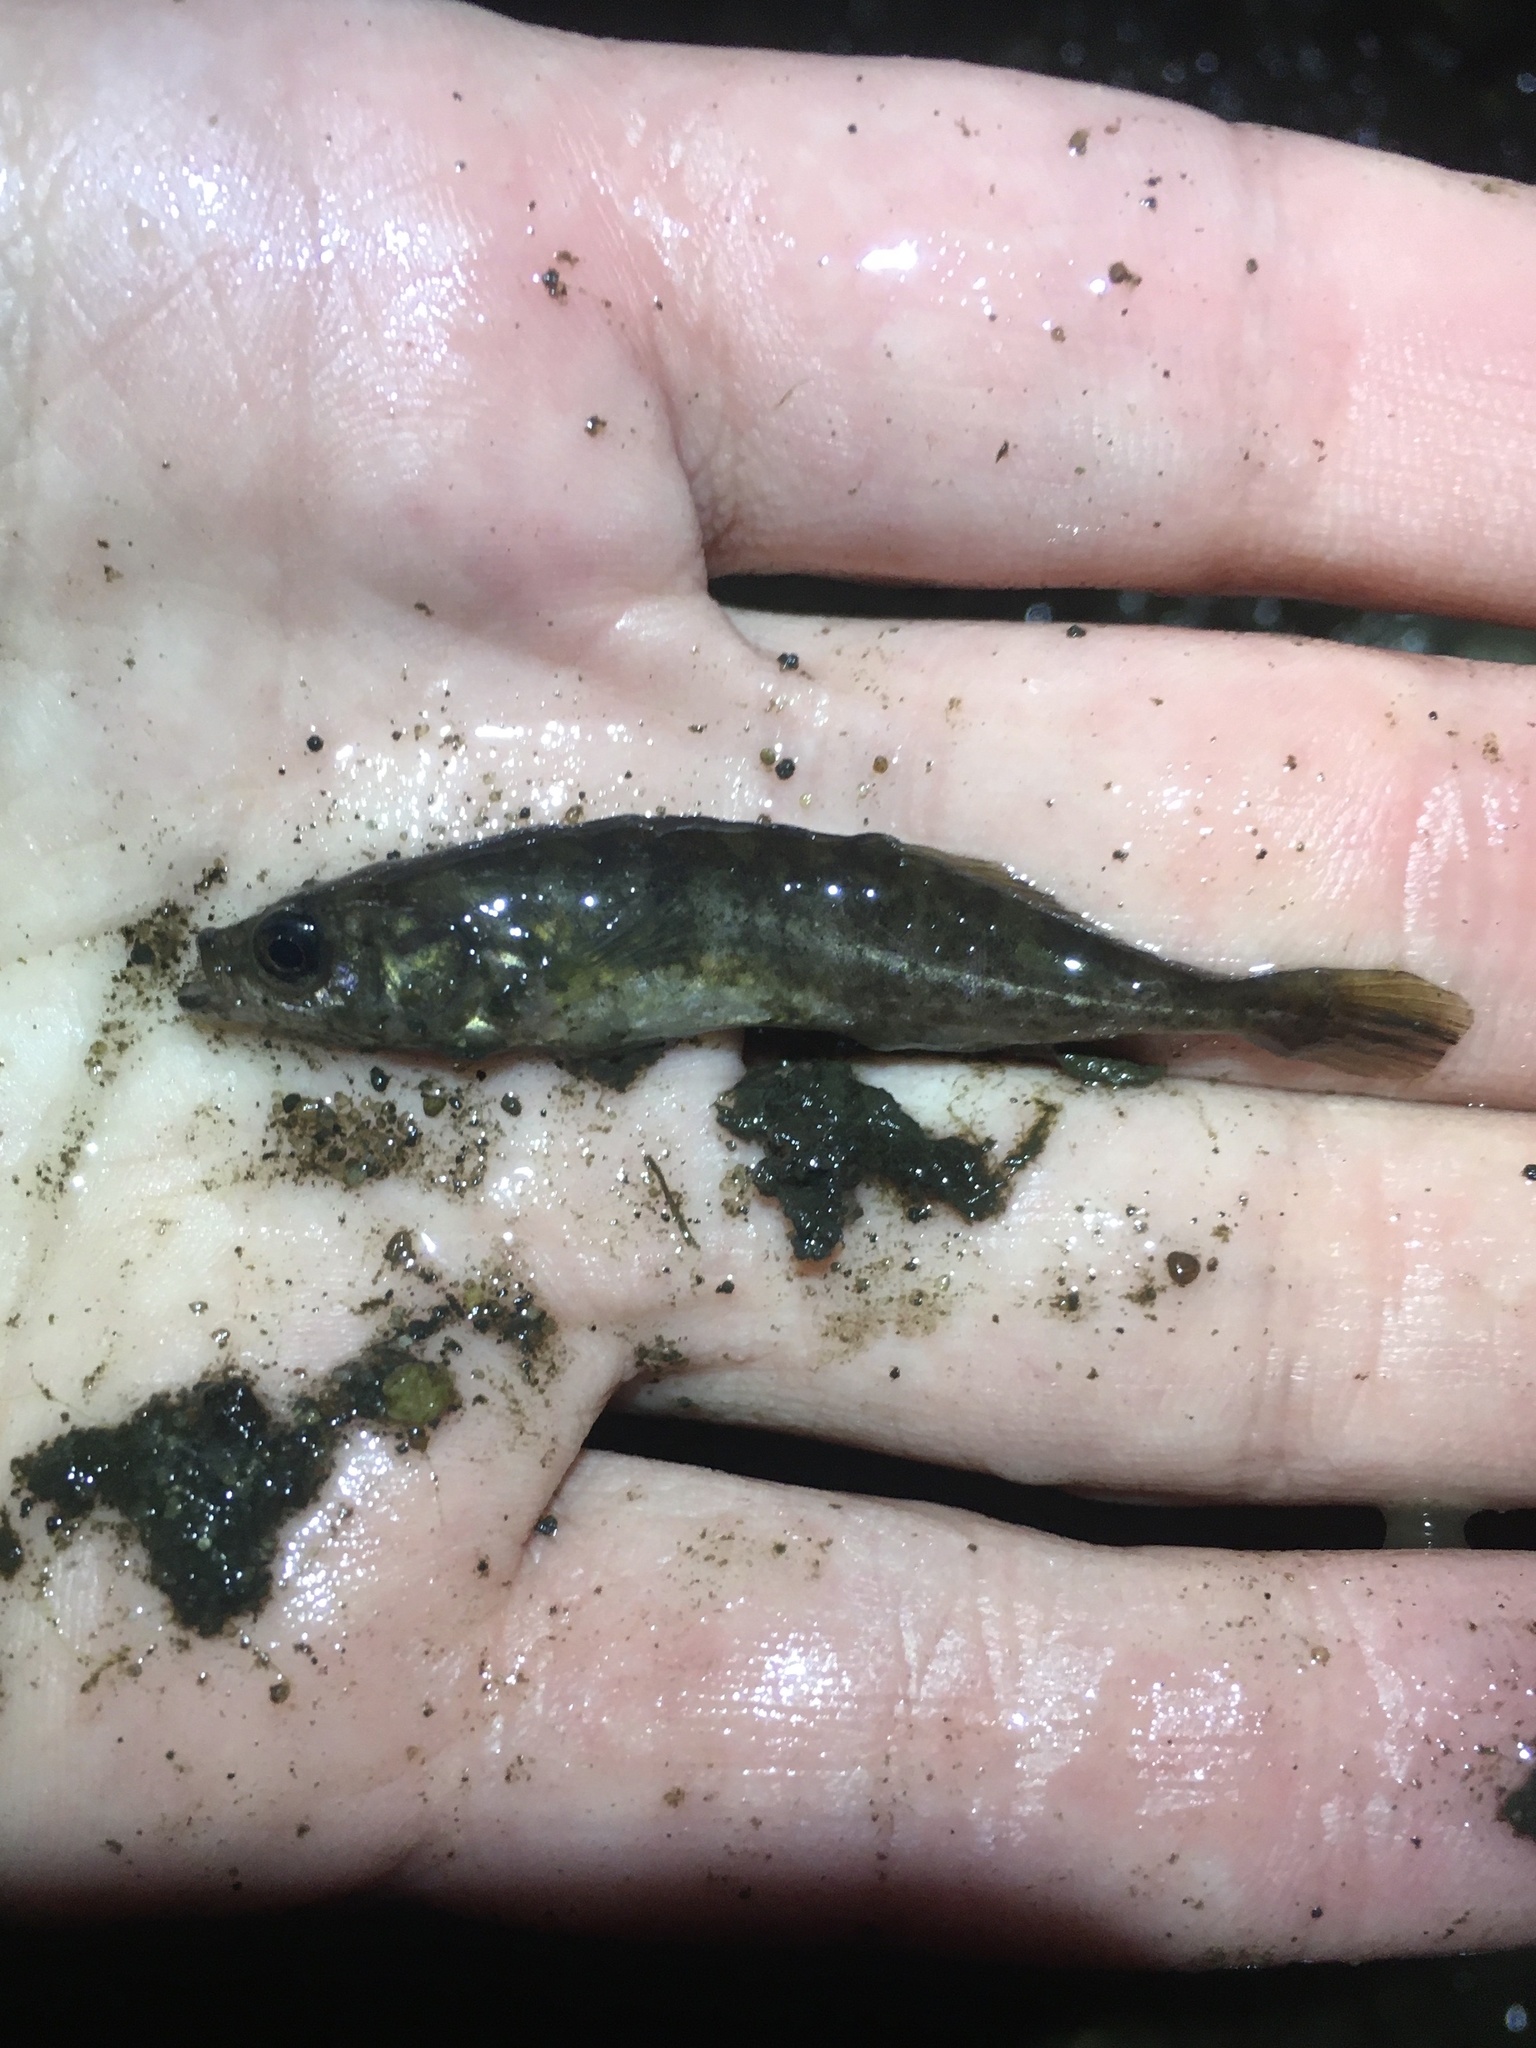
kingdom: Animalia
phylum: Chordata
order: Gasterosteiformes
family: Gasterosteidae
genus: Culaea
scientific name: Culaea inconstans
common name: Brook stickleback
